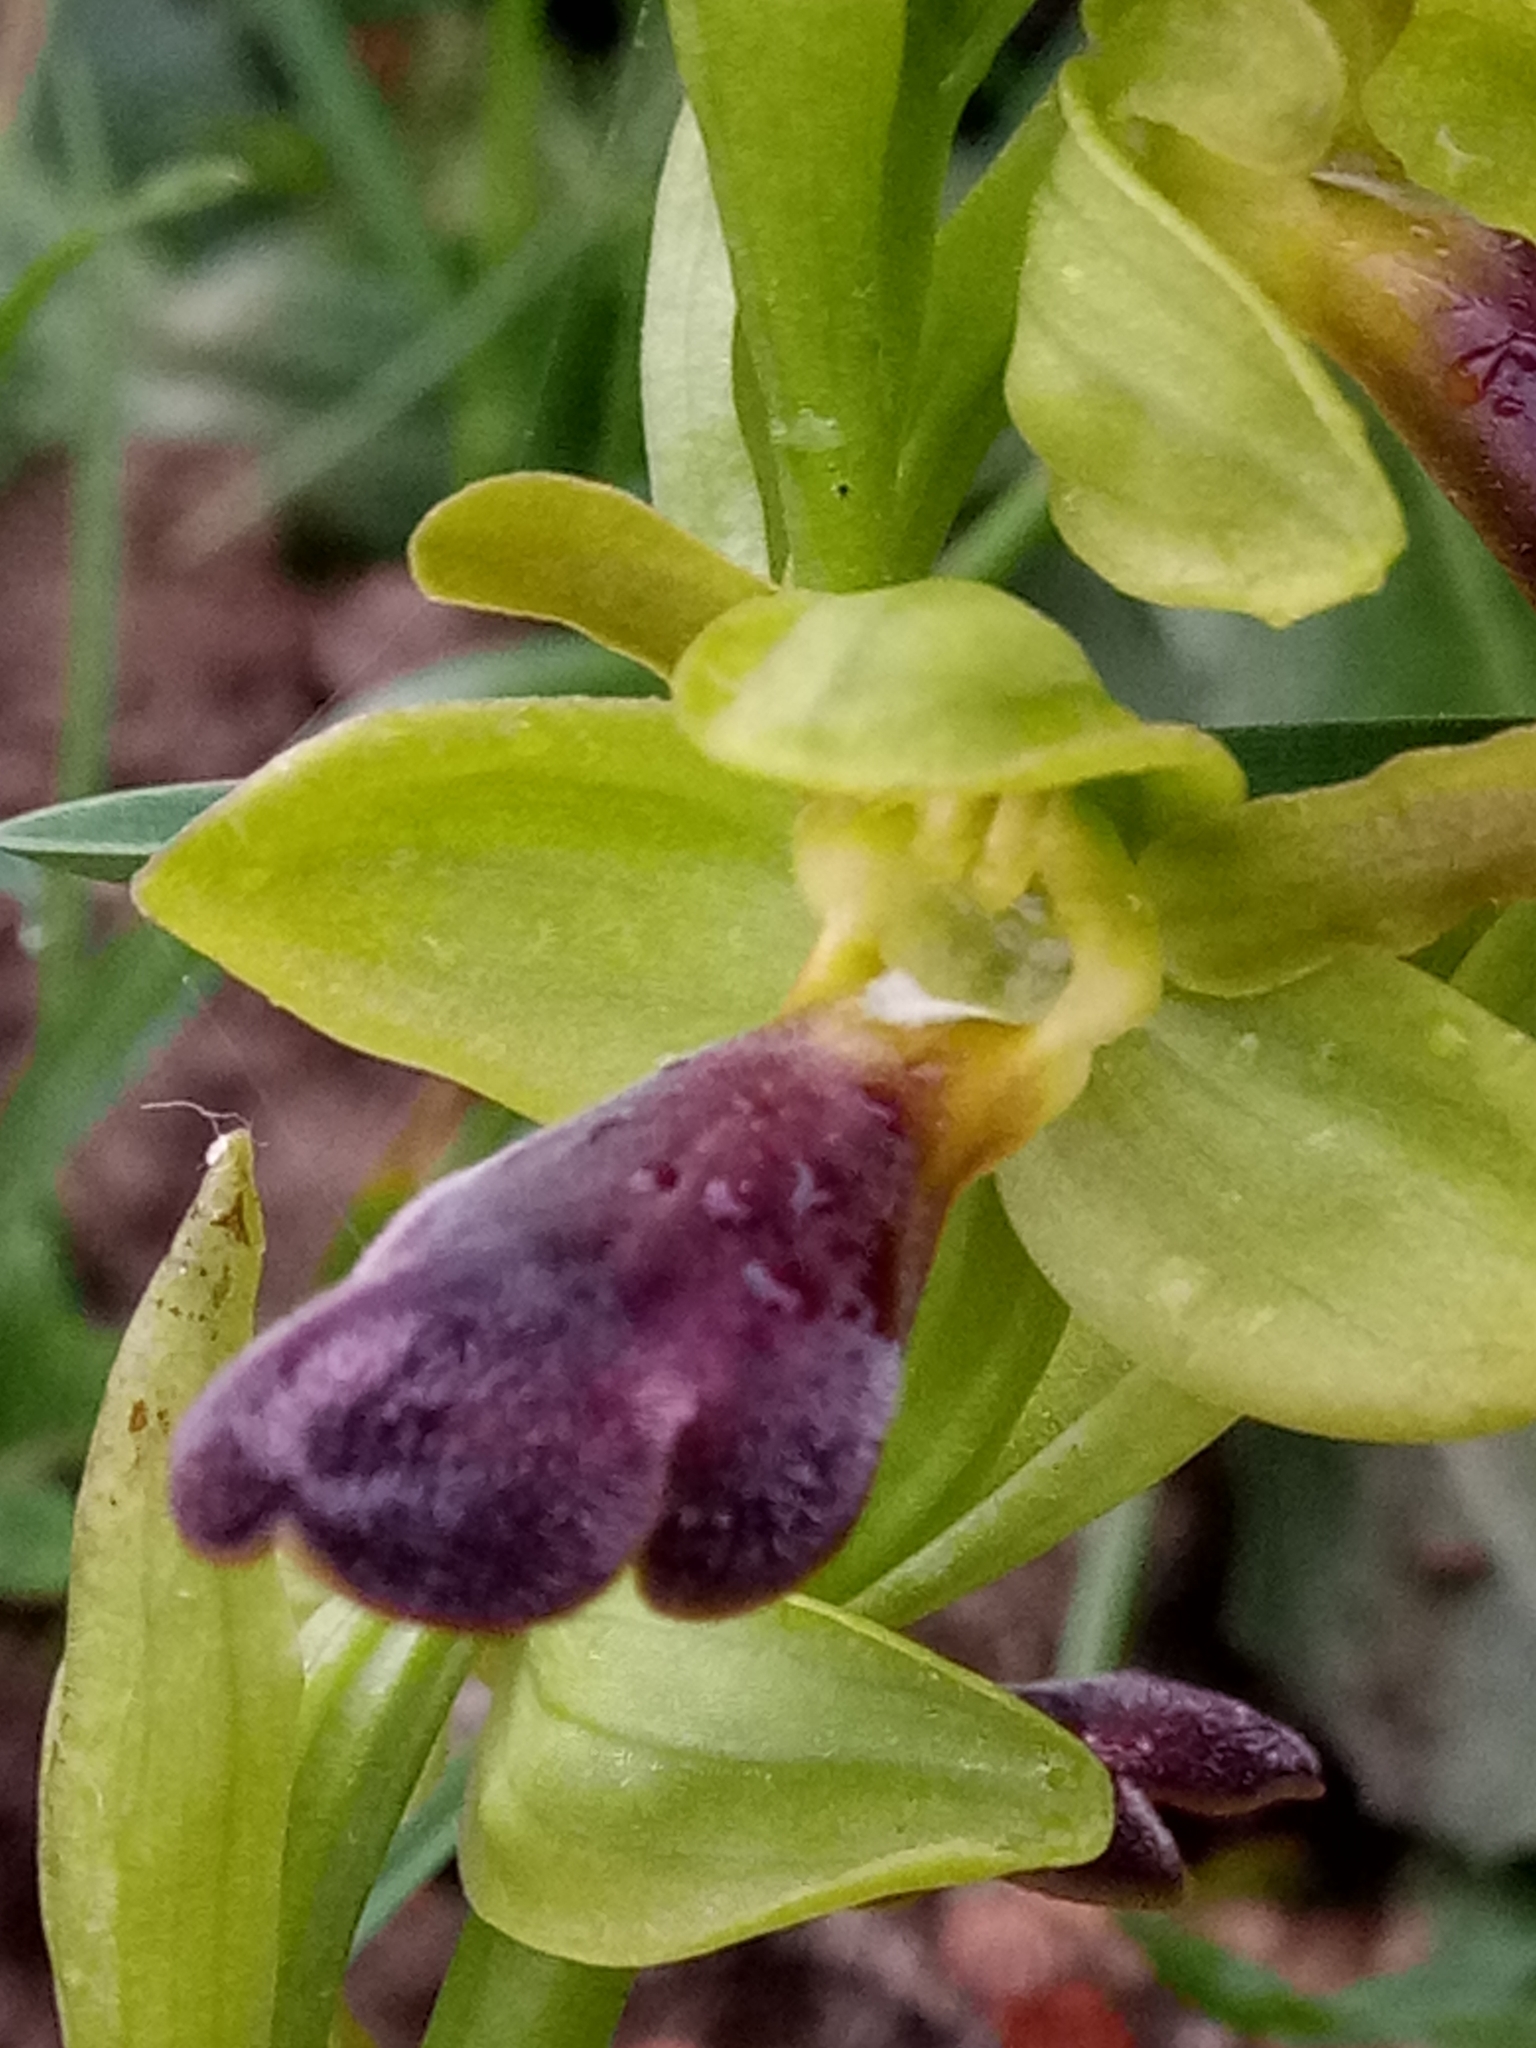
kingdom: Plantae
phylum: Tracheophyta
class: Liliopsida
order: Asparagales
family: Orchidaceae
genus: Ophrys
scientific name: Ophrys omegaifera
